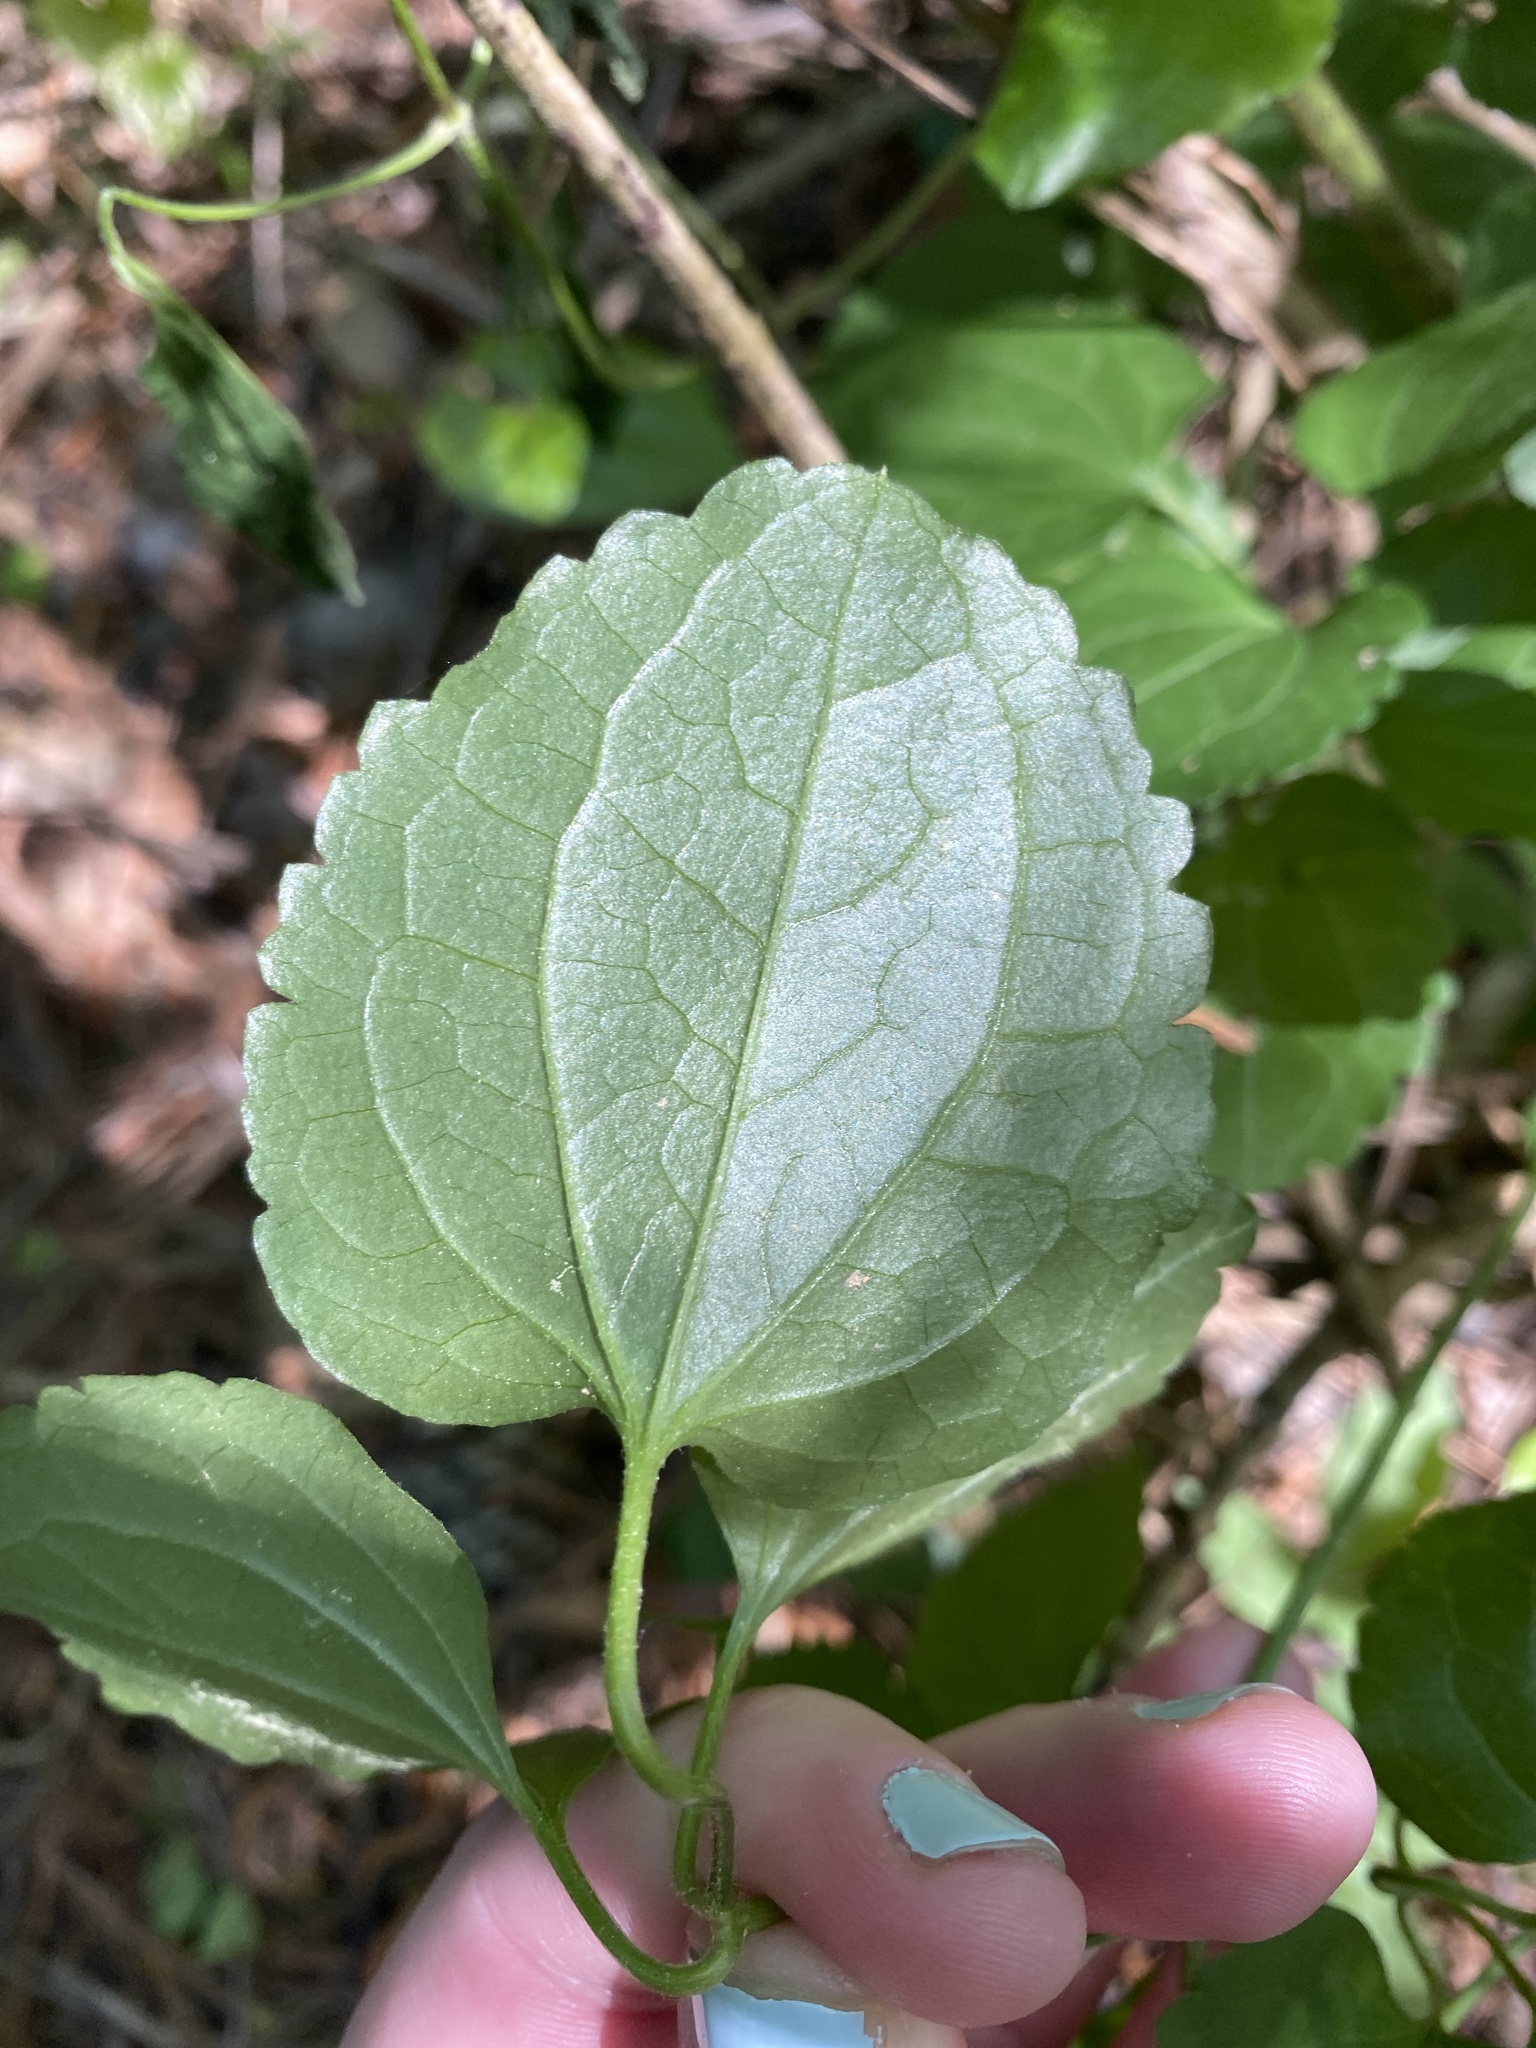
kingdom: Plantae
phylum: Tracheophyta
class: Magnoliopsida
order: Ranunculales
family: Ranunculaceae
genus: Clematis
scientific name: Clematis terniflora
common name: Sweet autumn clematis
